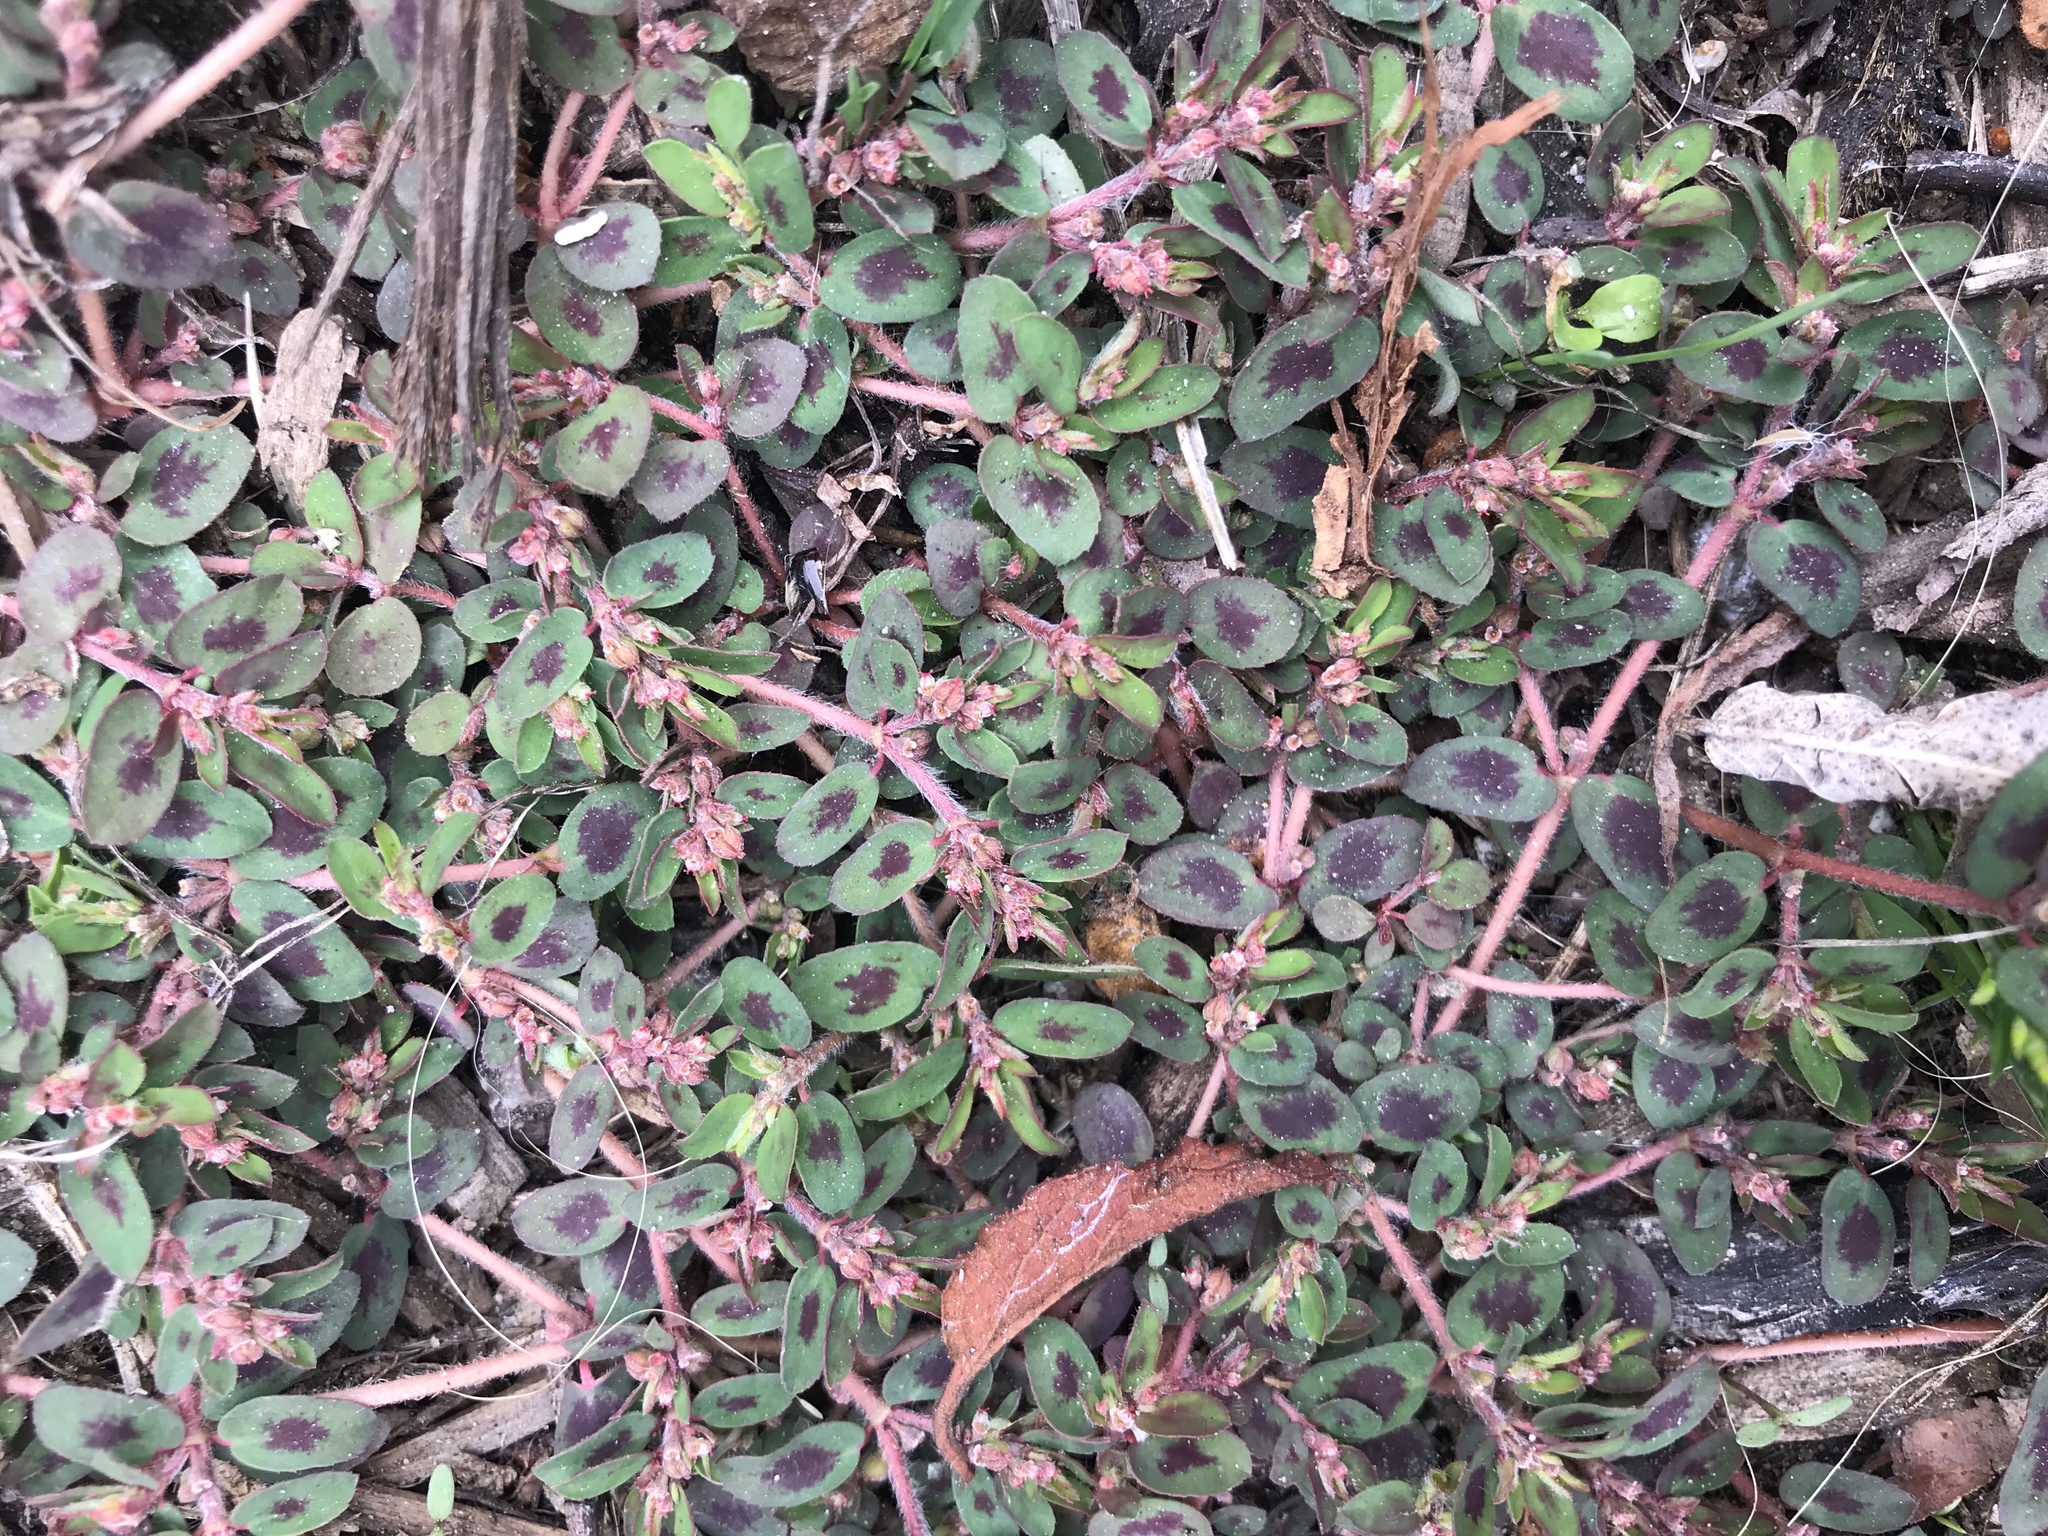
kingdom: Plantae
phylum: Tracheophyta
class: Magnoliopsida
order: Malpighiales
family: Euphorbiaceae
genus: Euphorbia
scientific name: Euphorbia maculata
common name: Spotted spurge
